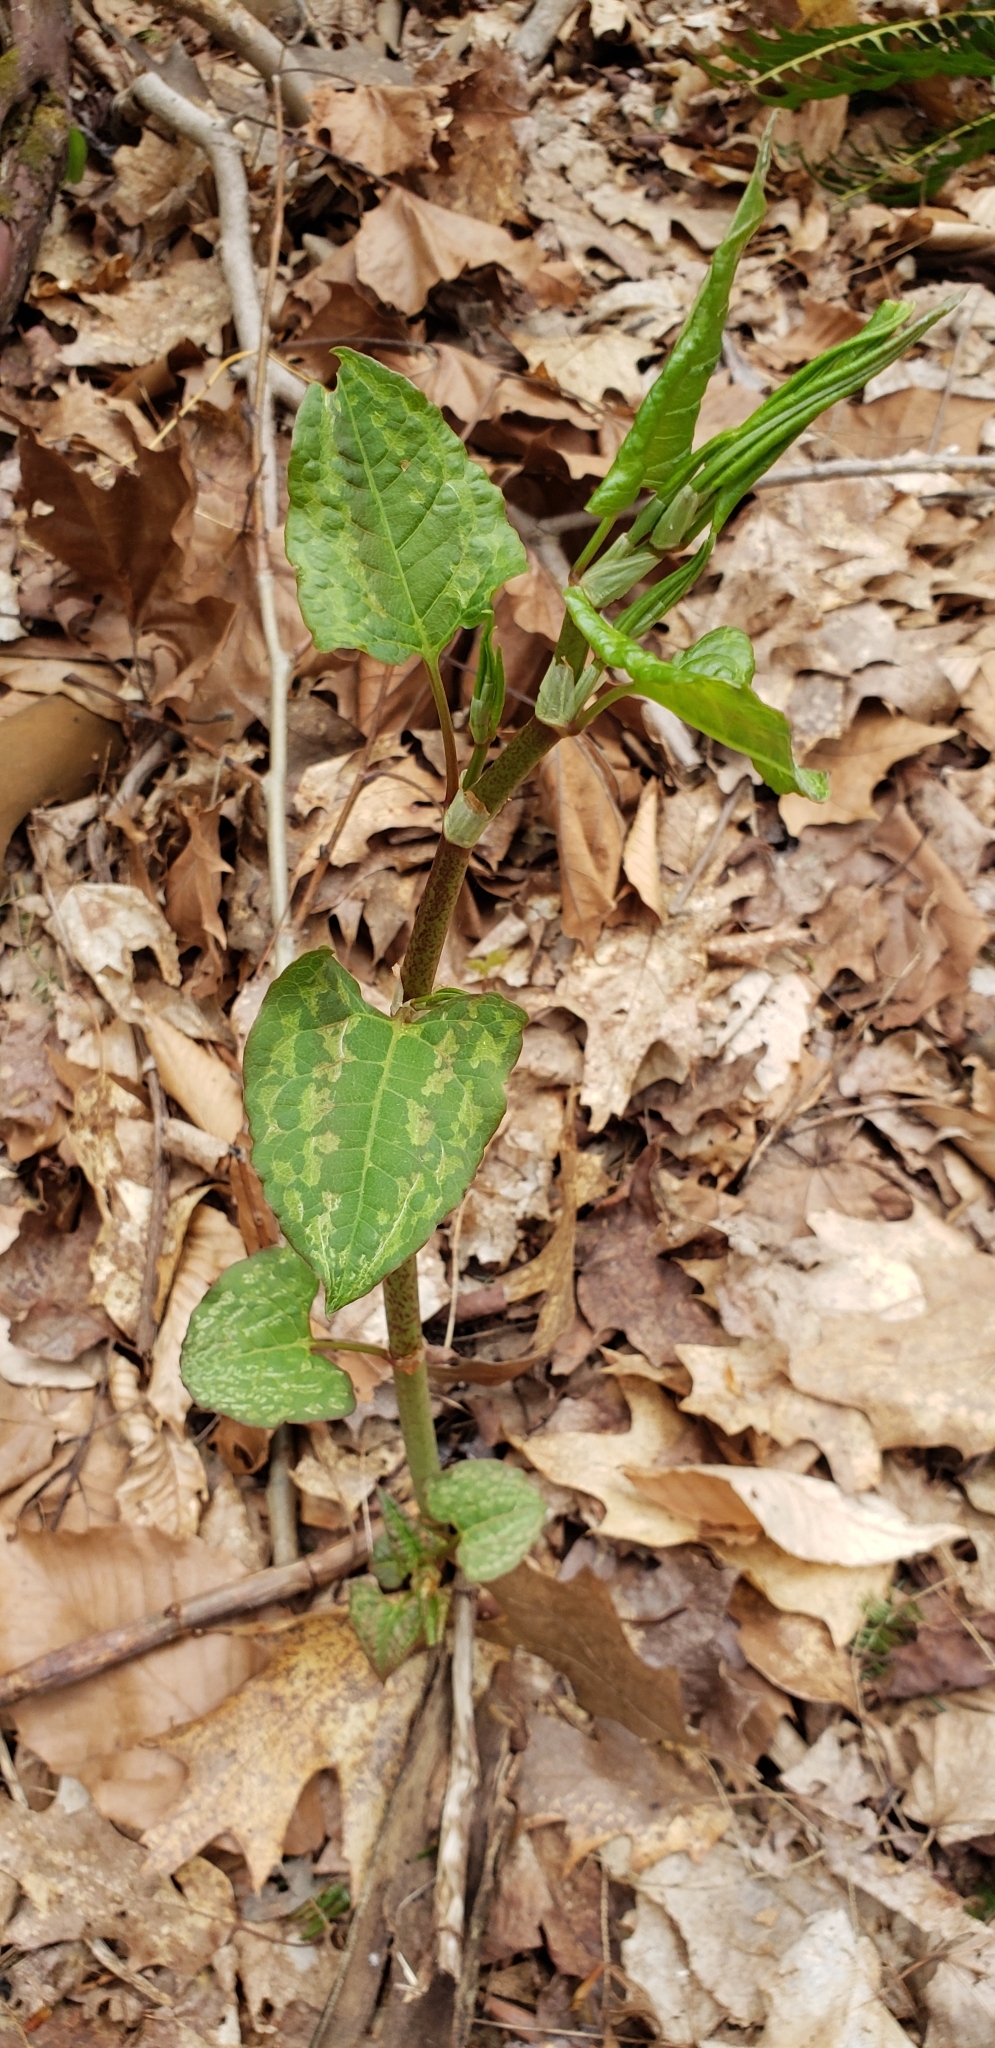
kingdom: Plantae
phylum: Tracheophyta
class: Magnoliopsida
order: Caryophyllales
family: Polygonaceae
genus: Reynoutria
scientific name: Reynoutria japonica
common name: Japanese knotweed
